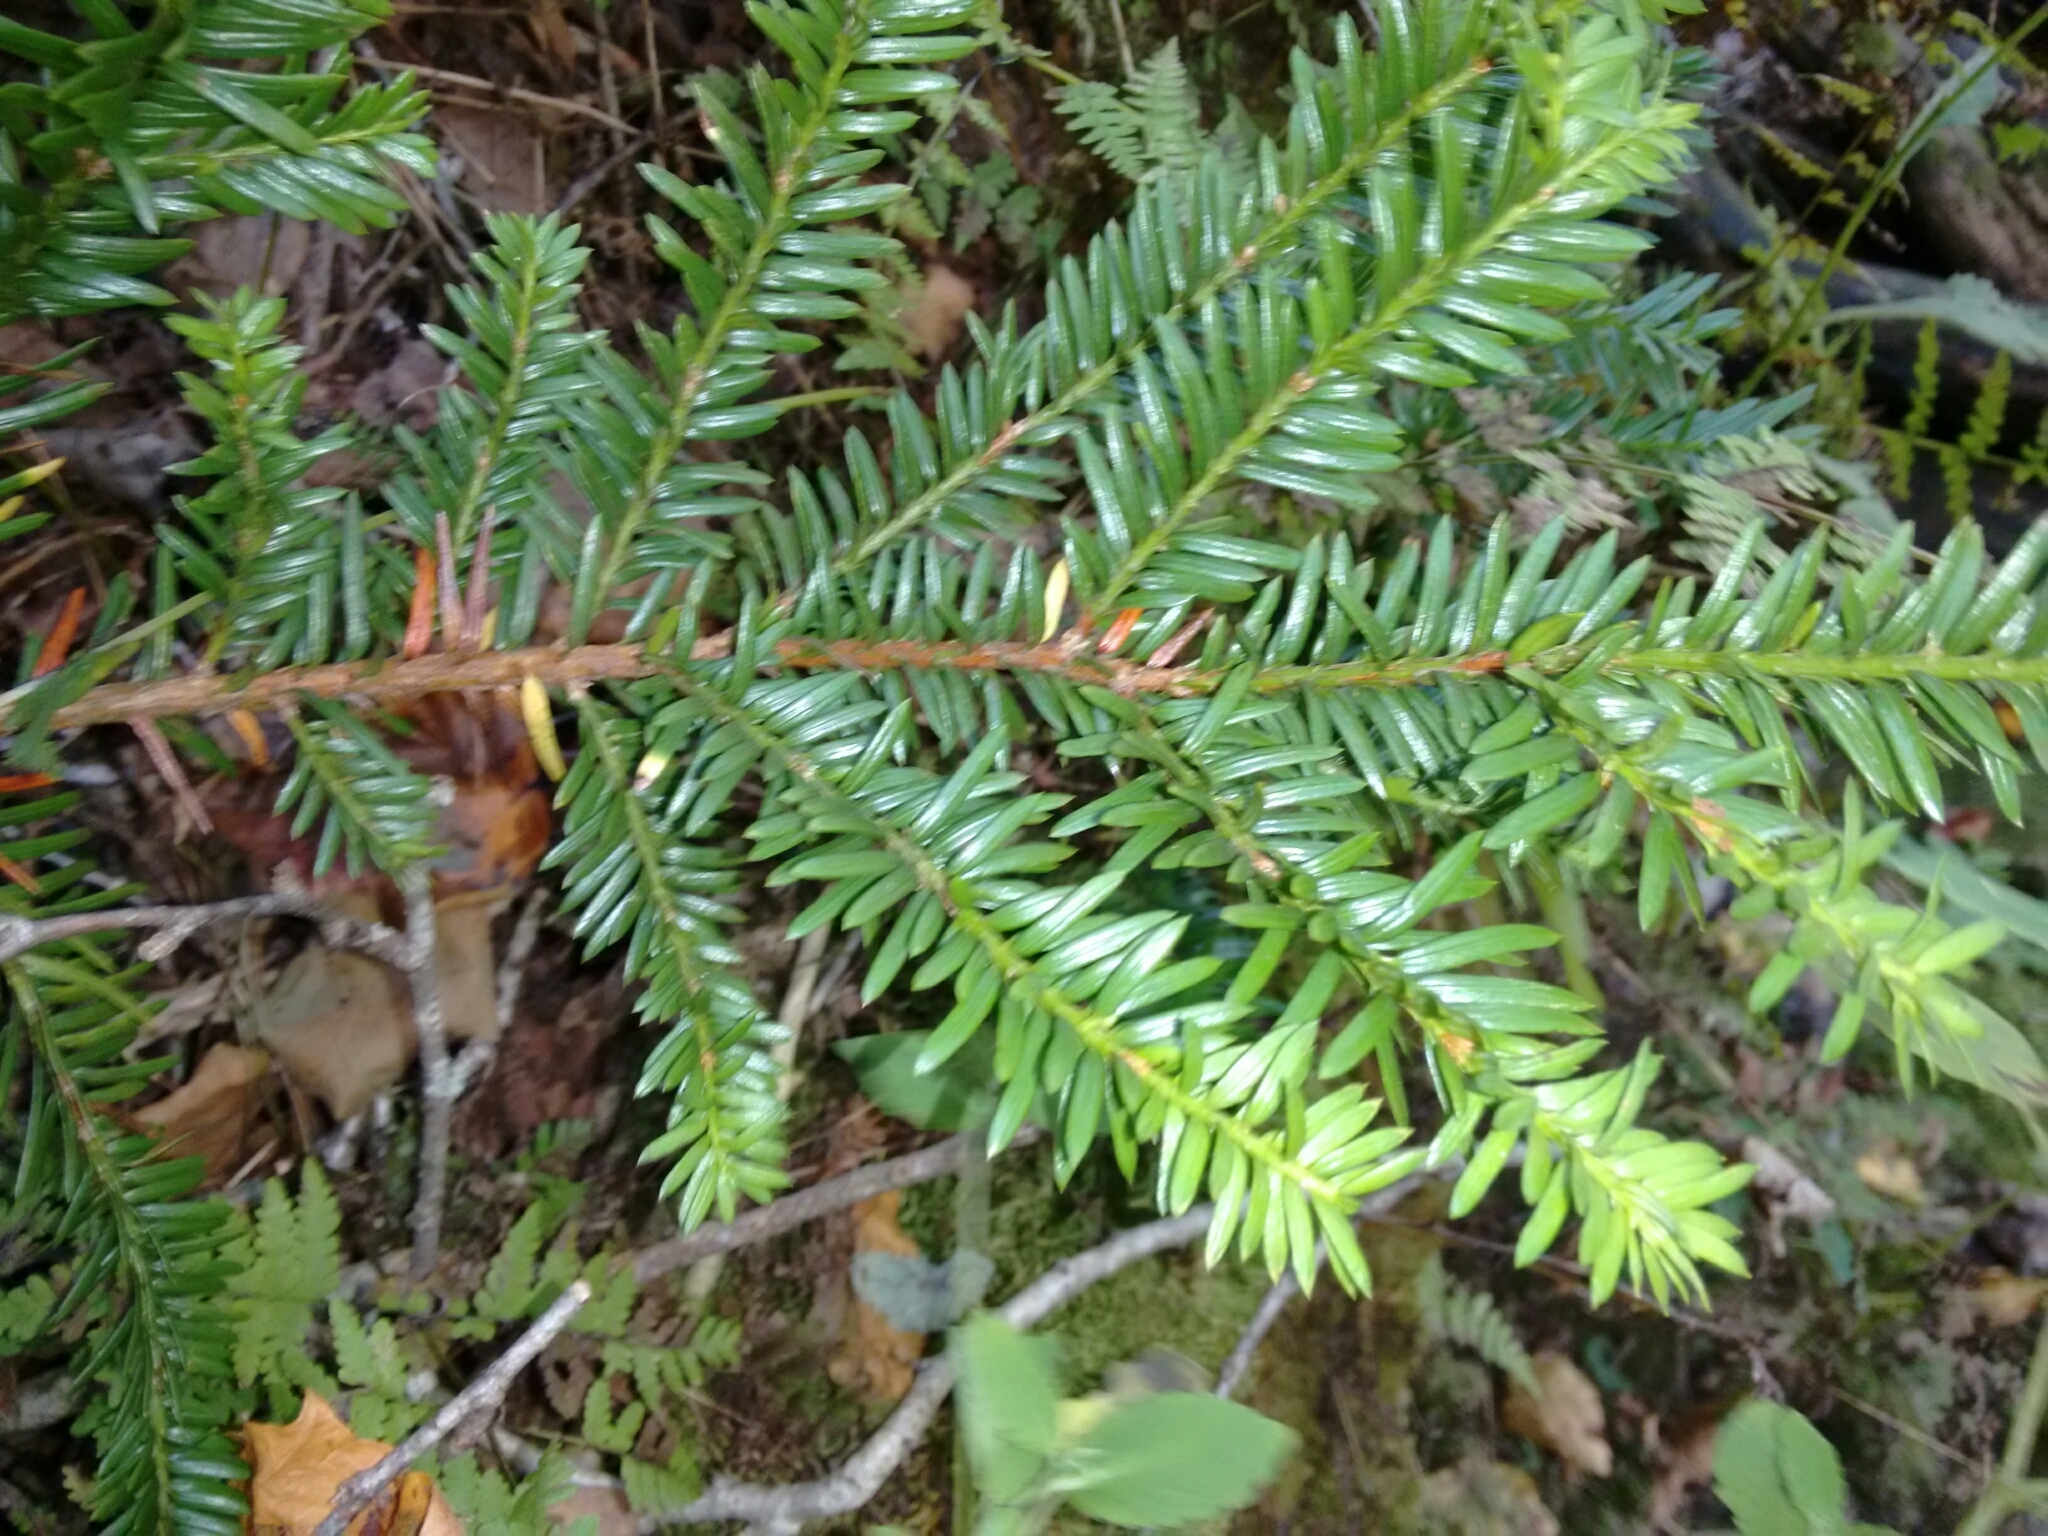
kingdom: Plantae
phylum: Tracheophyta
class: Pinopsida
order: Pinales
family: Taxaceae
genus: Taxus
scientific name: Taxus canadensis
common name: American yew
